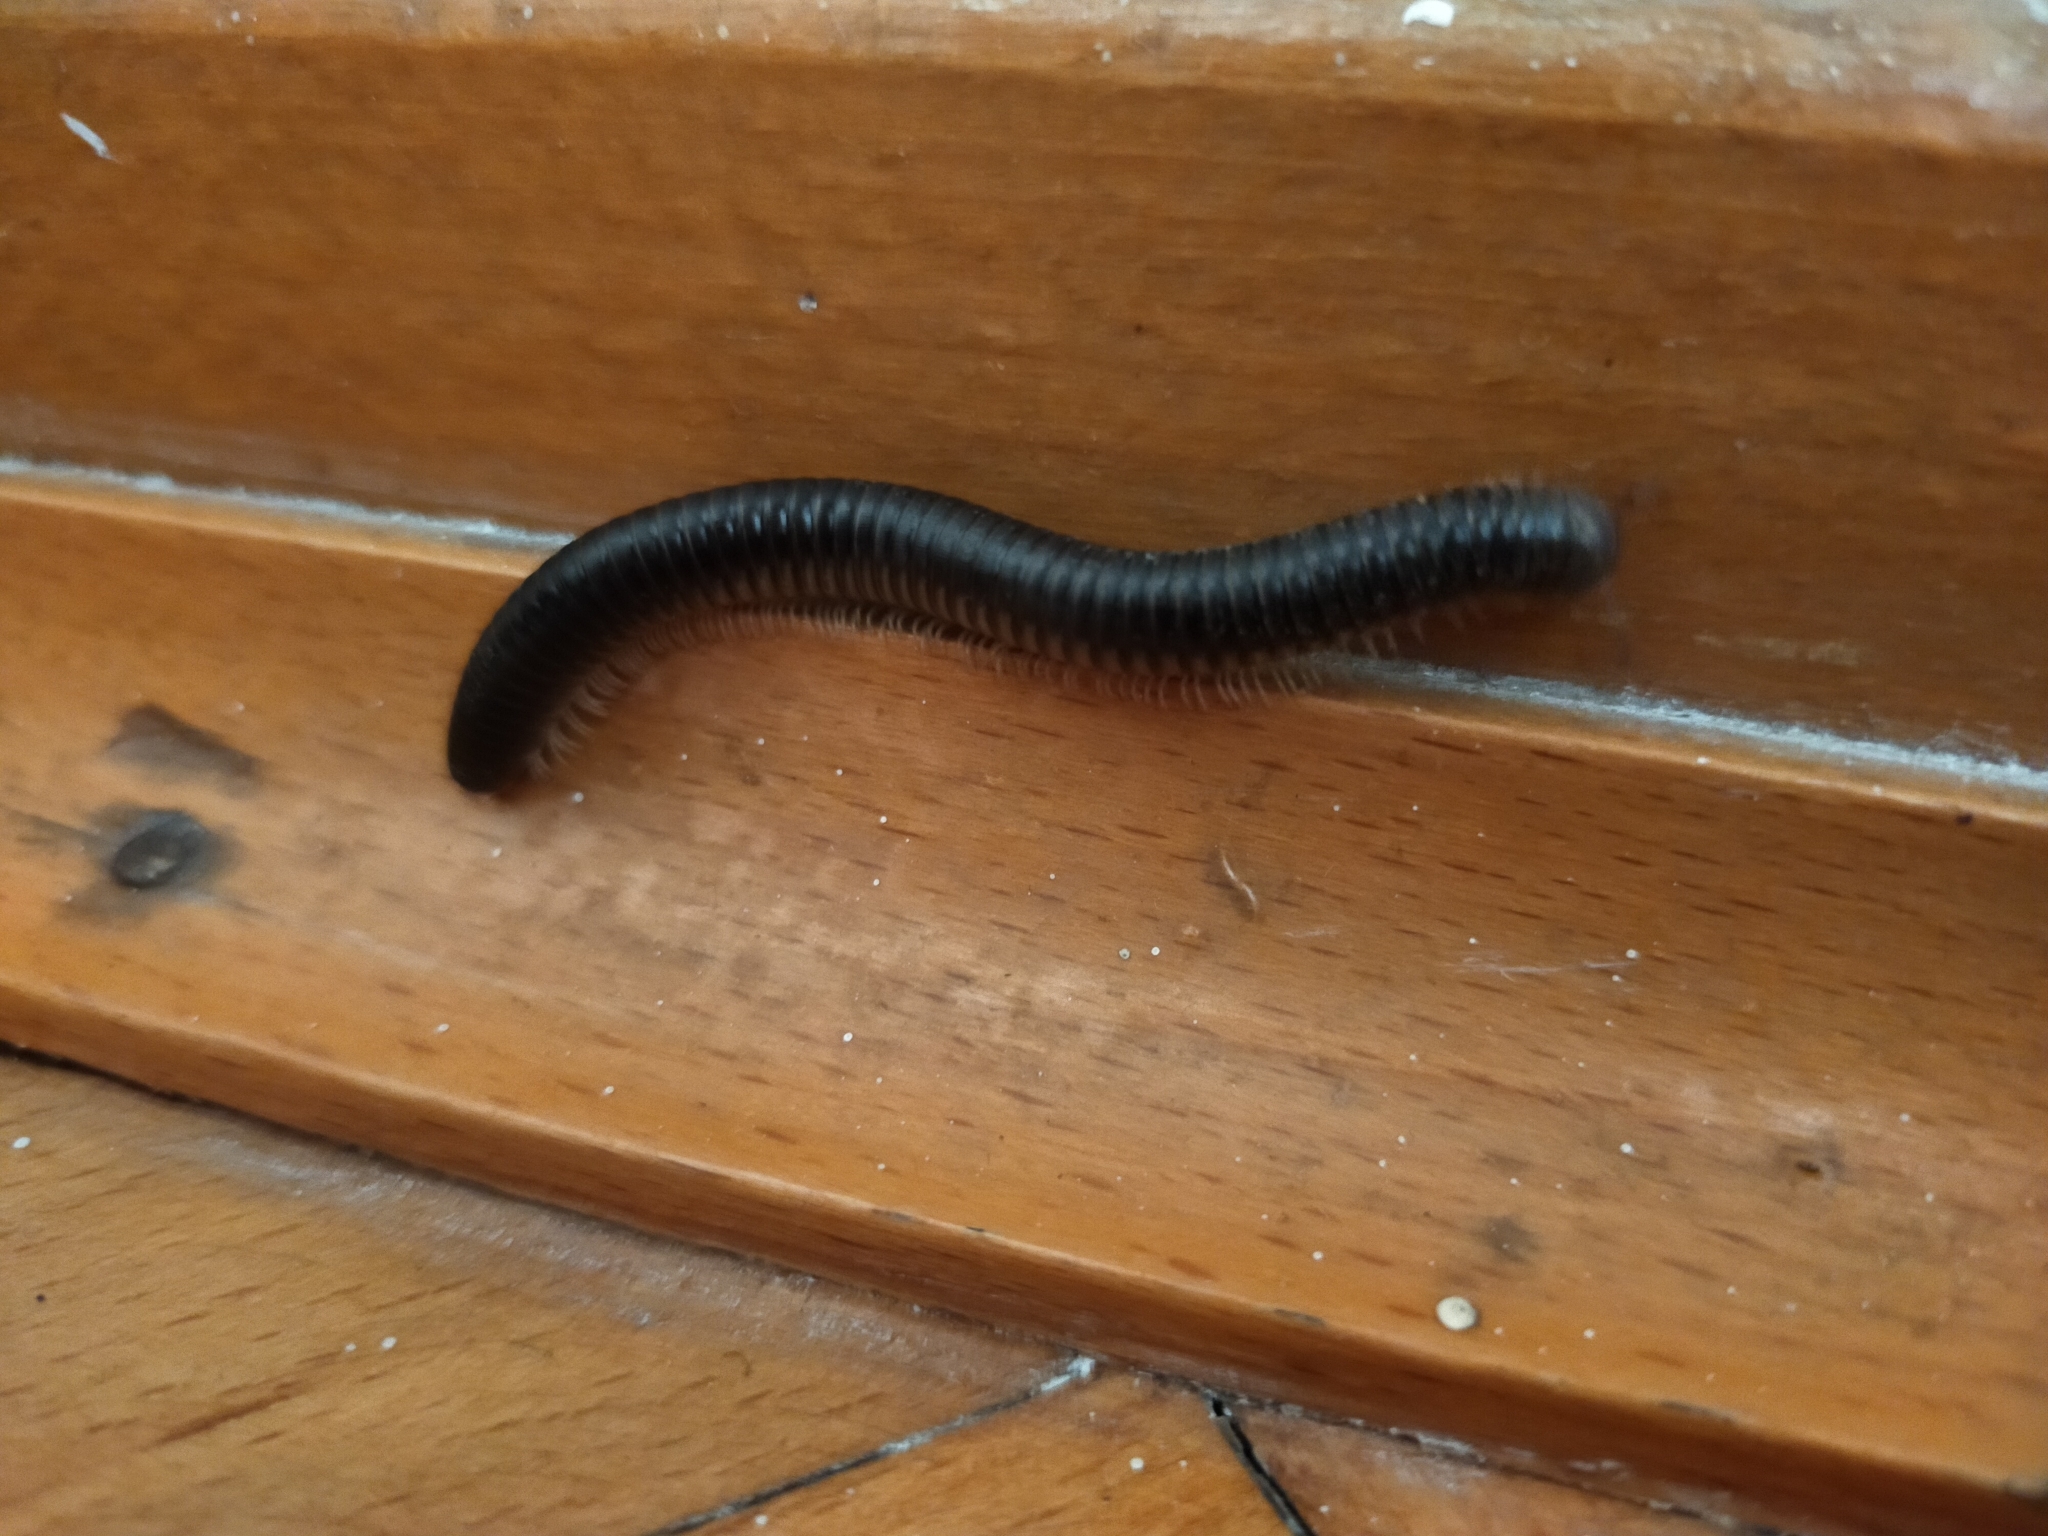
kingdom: Animalia
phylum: Arthropoda
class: Diplopoda
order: Julida
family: Julidae
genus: Pachyiulus
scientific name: Pachyiulus flavipes
